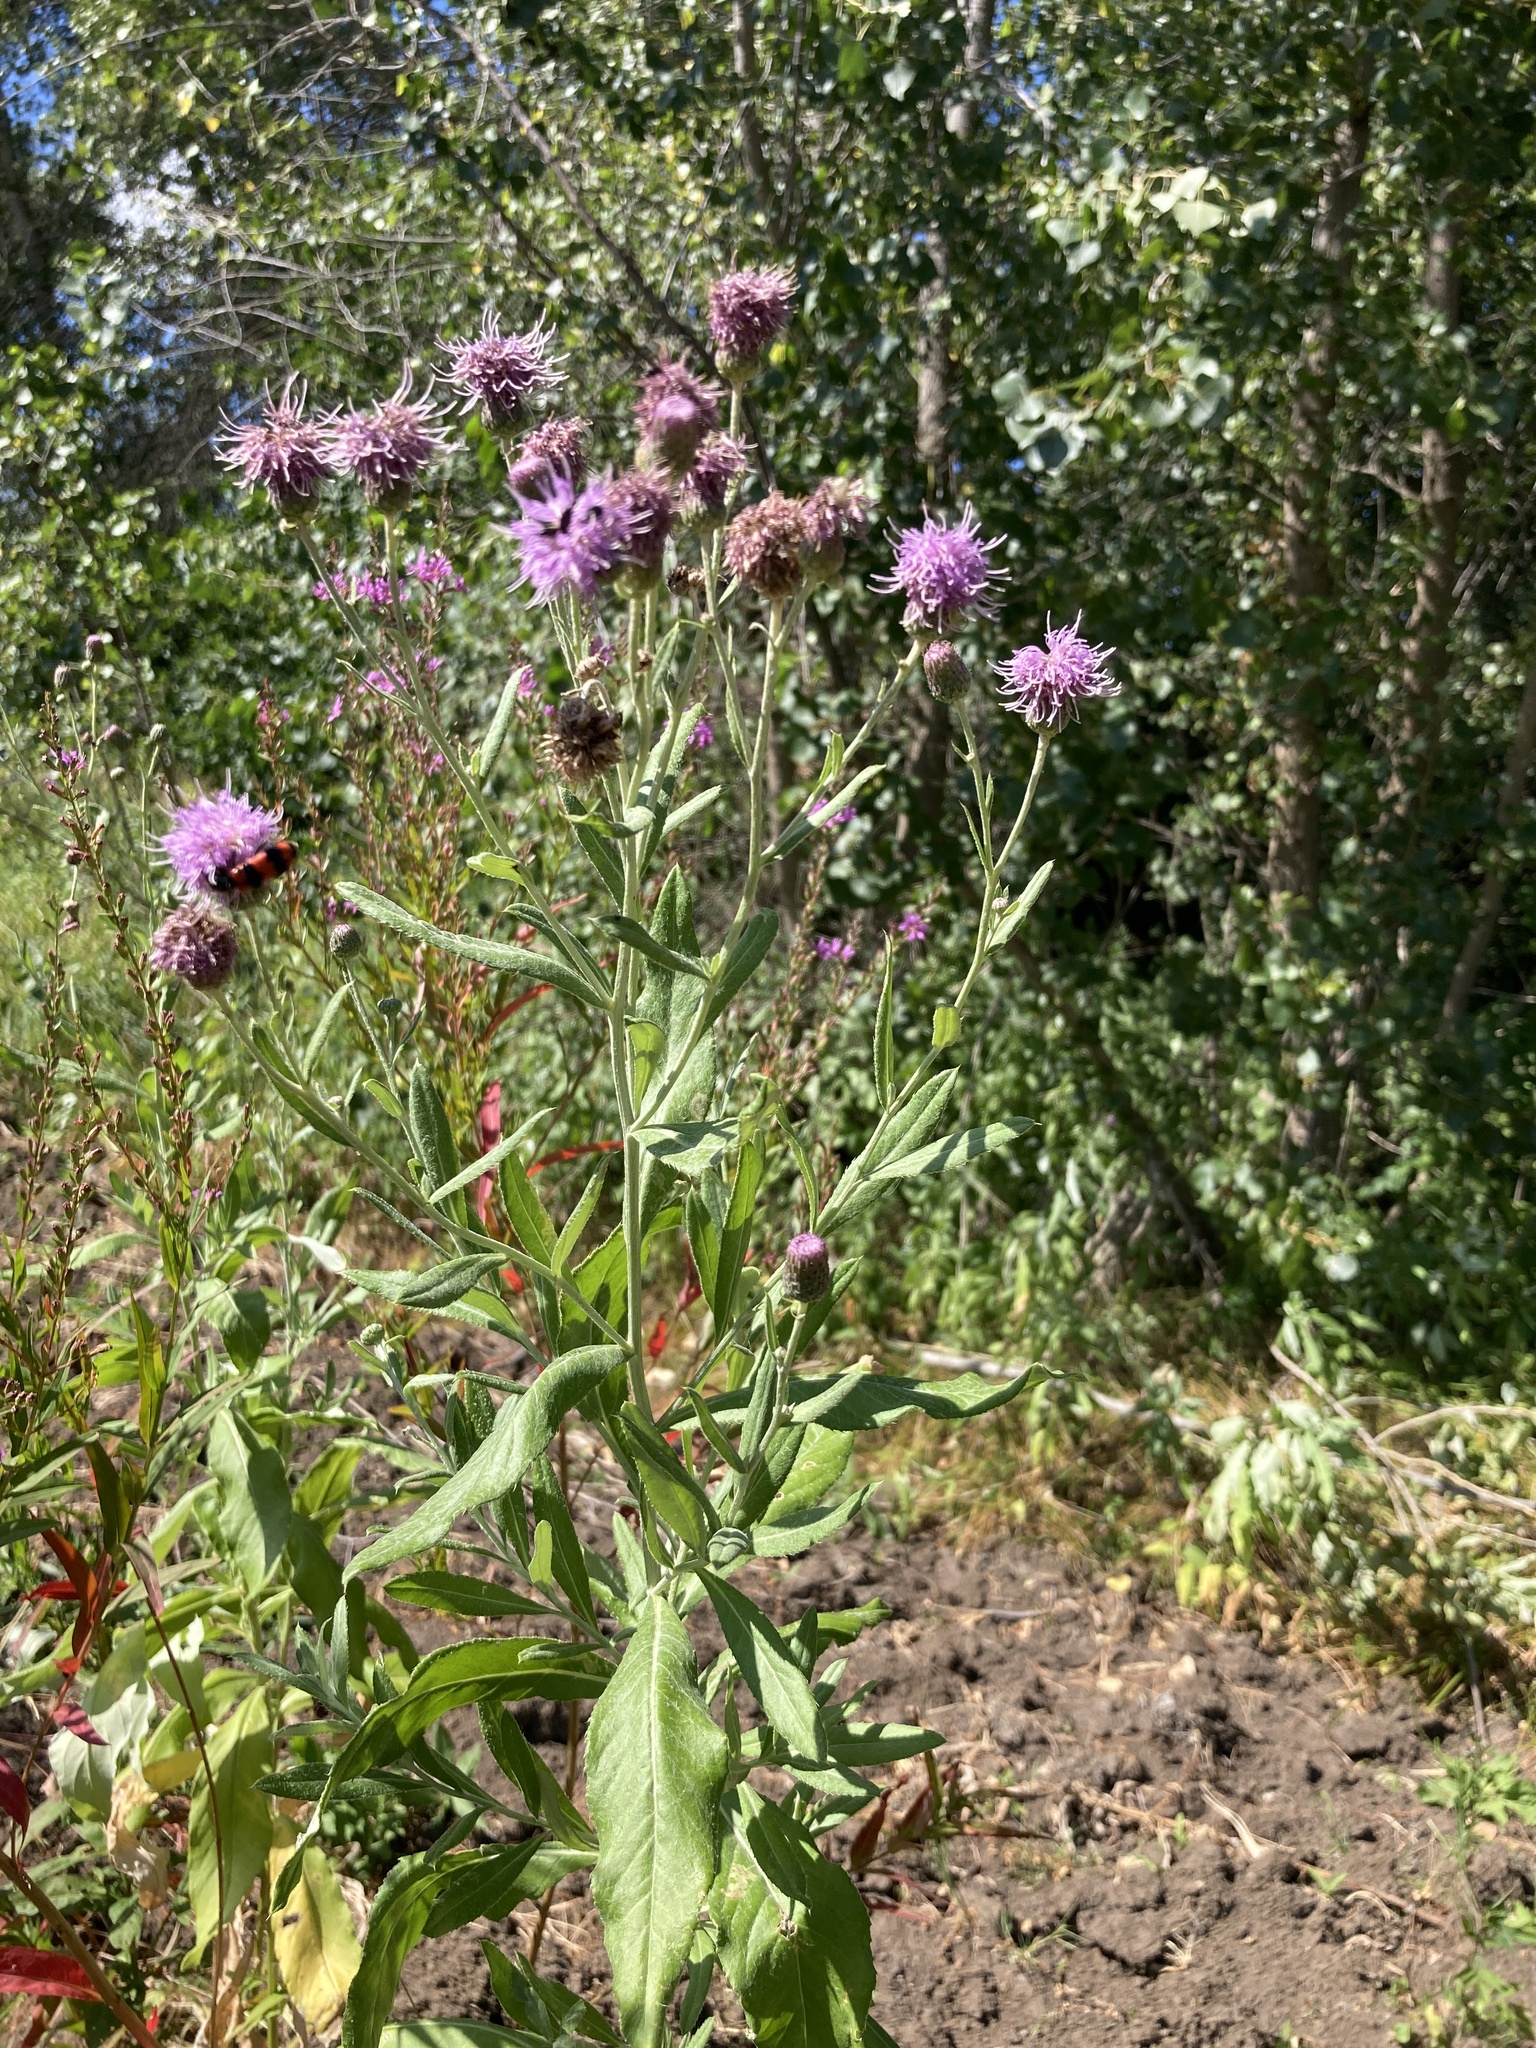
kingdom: Plantae
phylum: Tracheophyta
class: Magnoliopsida
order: Asterales
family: Asteraceae
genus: Cirsium
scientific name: Cirsium arvense
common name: Creeping thistle
